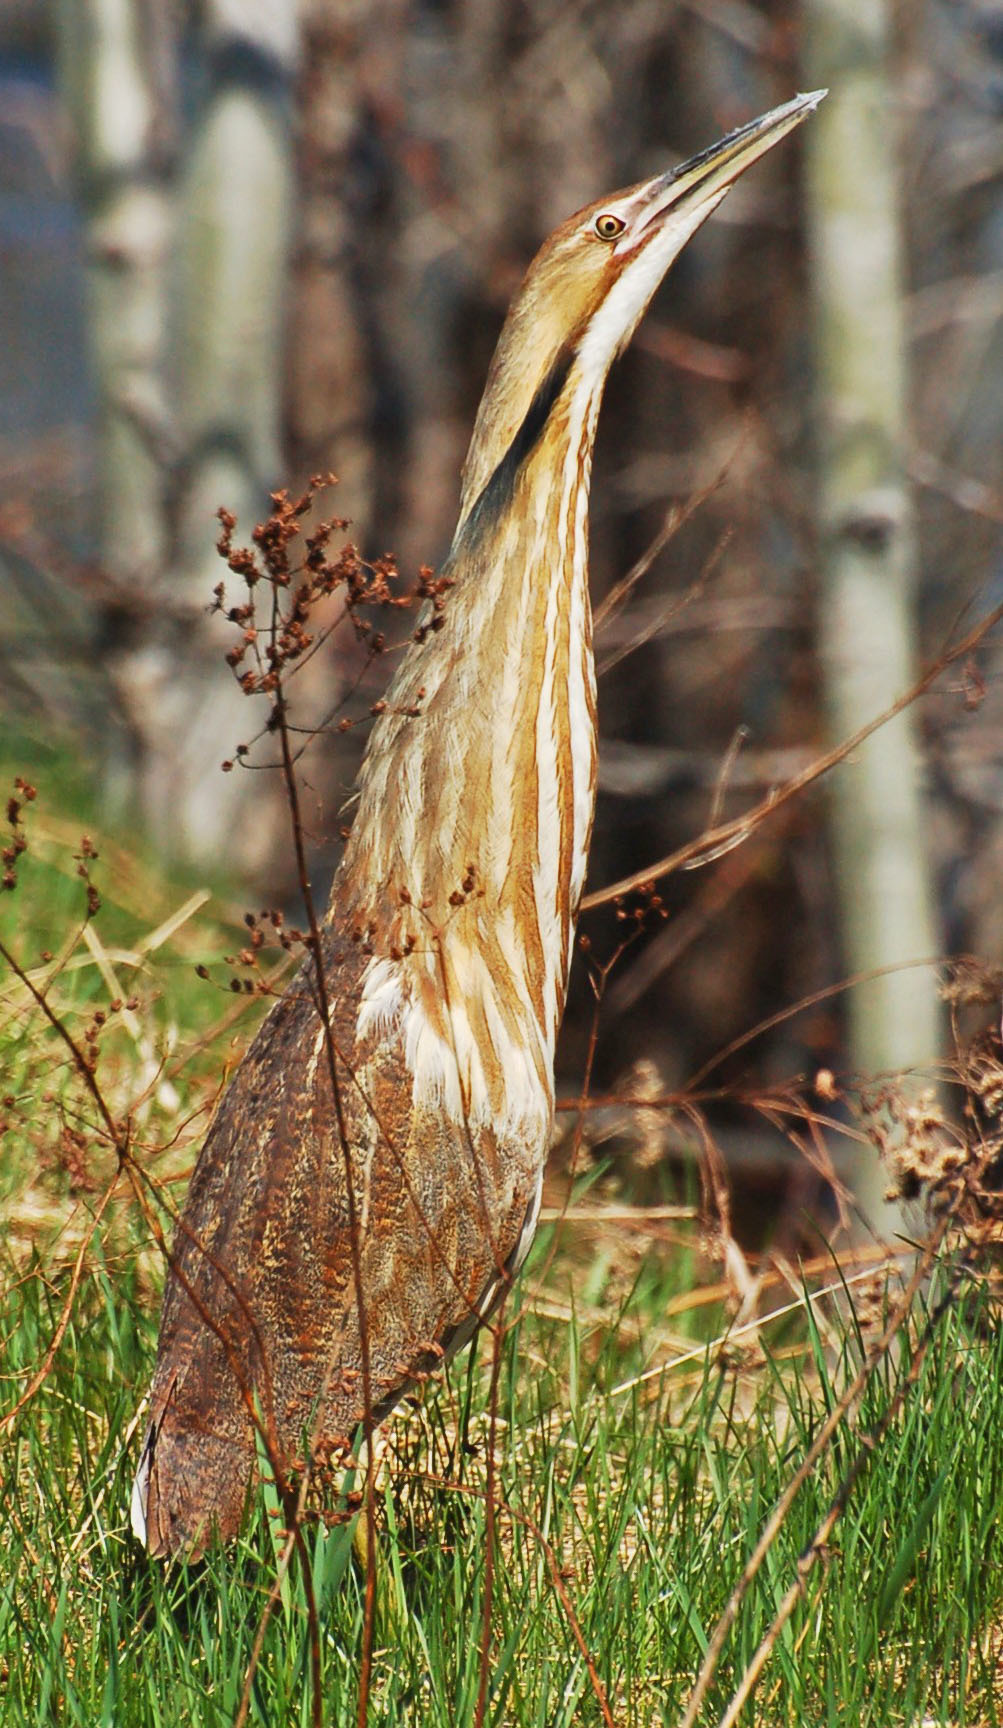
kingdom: Animalia
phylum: Chordata
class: Aves
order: Pelecaniformes
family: Ardeidae
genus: Botaurus
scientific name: Botaurus lentiginosus
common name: American bittern
